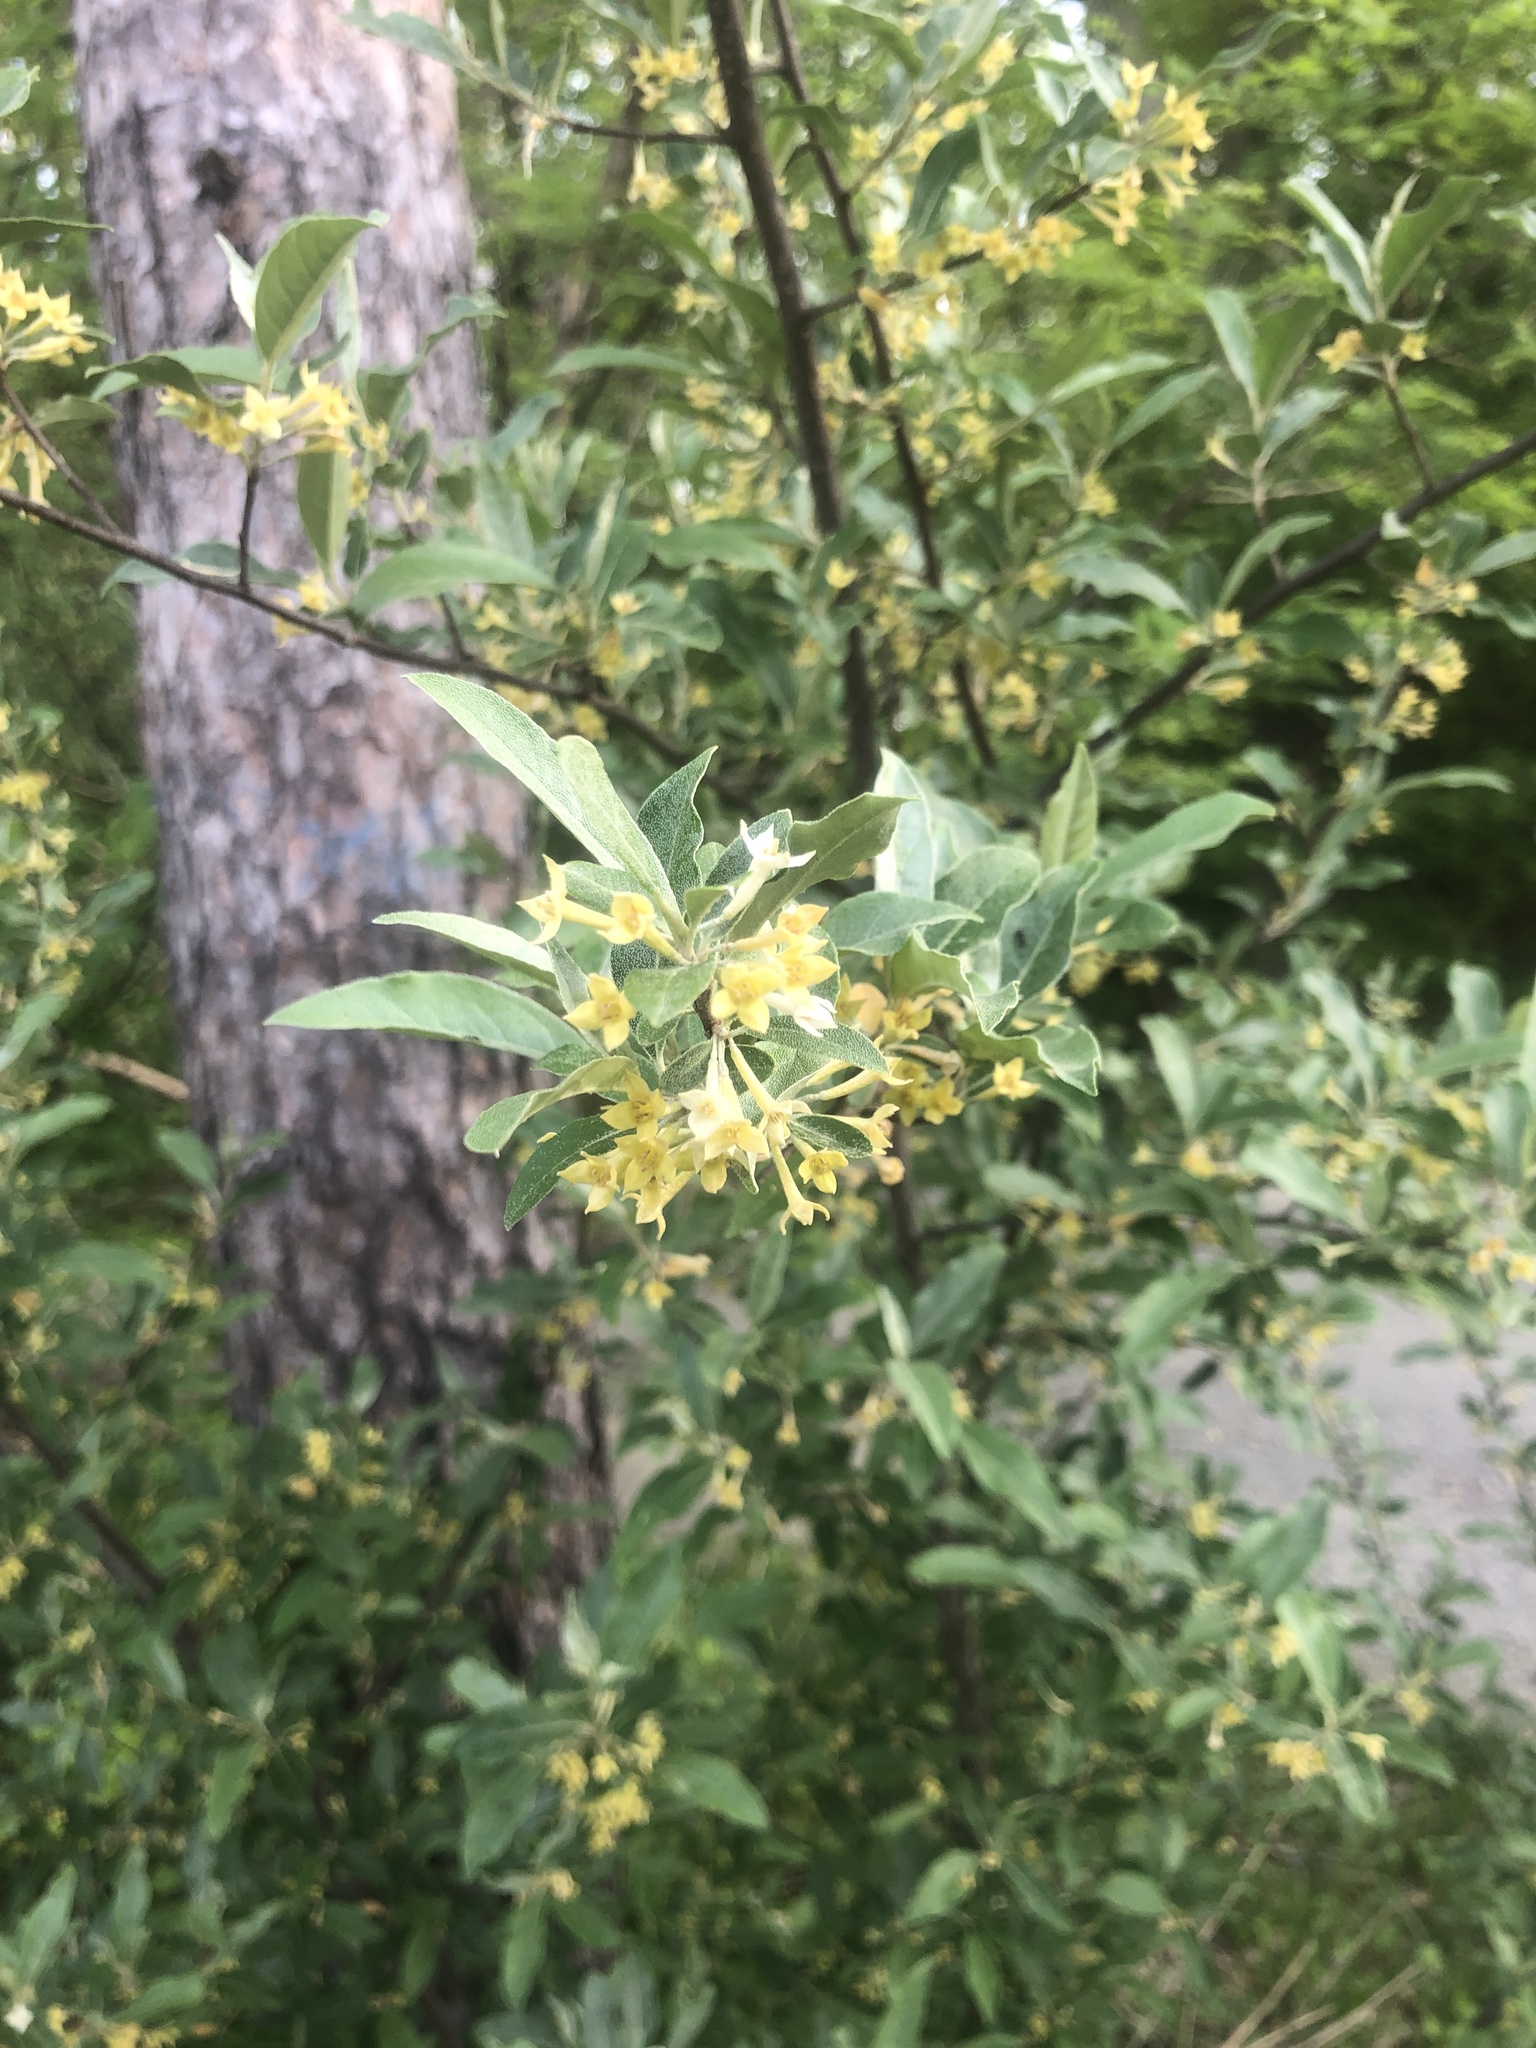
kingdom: Plantae
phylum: Tracheophyta
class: Magnoliopsida
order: Rosales
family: Elaeagnaceae
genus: Elaeagnus
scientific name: Elaeagnus umbellata
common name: Autumn olive
